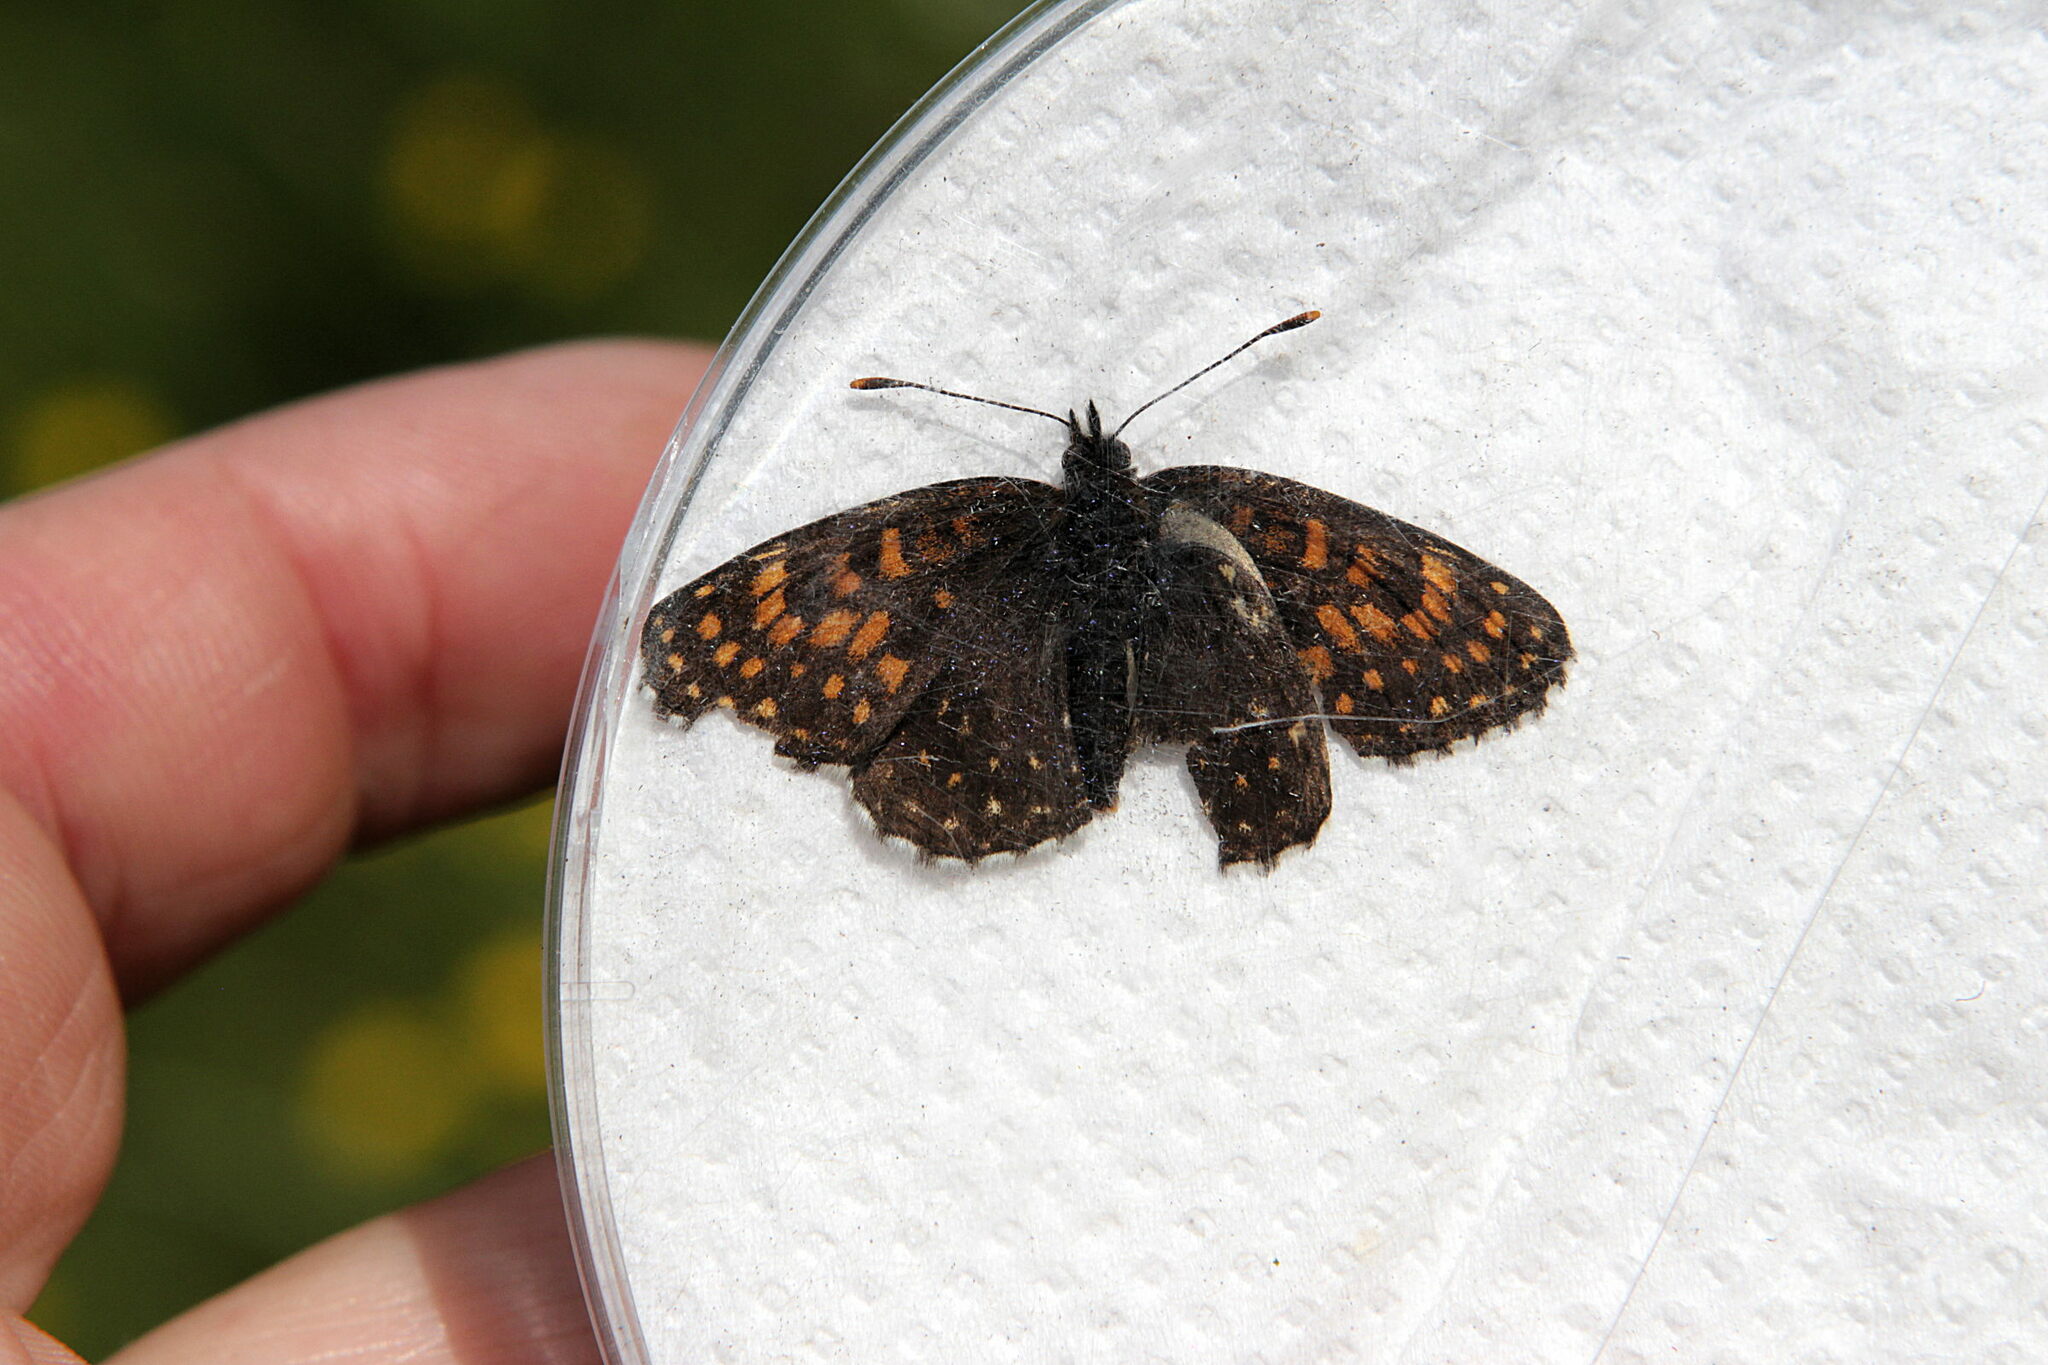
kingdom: Animalia
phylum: Arthropoda
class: Insecta
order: Lepidoptera
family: Nymphalidae
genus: Melitaea
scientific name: Melitaea diamina
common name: False heath fritillary
